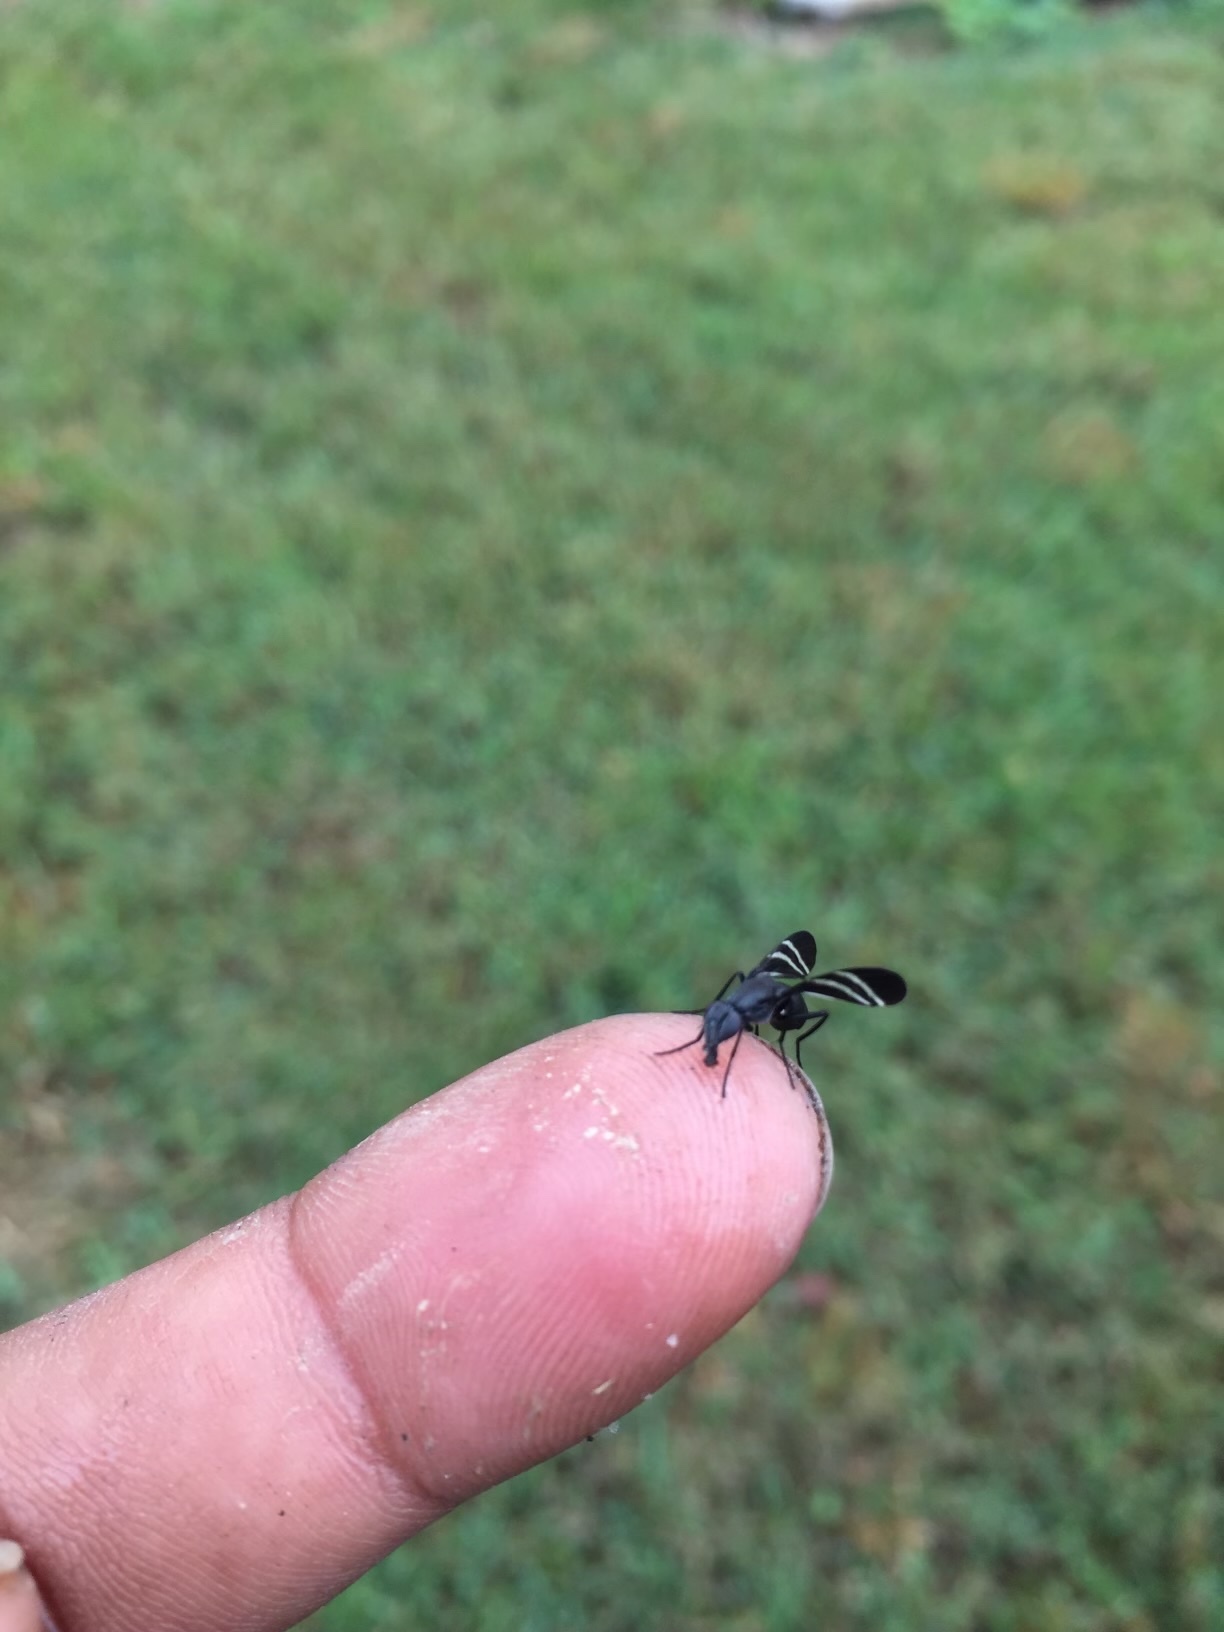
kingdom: Animalia
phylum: Arthropoda
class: Insecta
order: Diptera
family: Ulidiidae
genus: Tritoxa
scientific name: Tritoxa flexa
